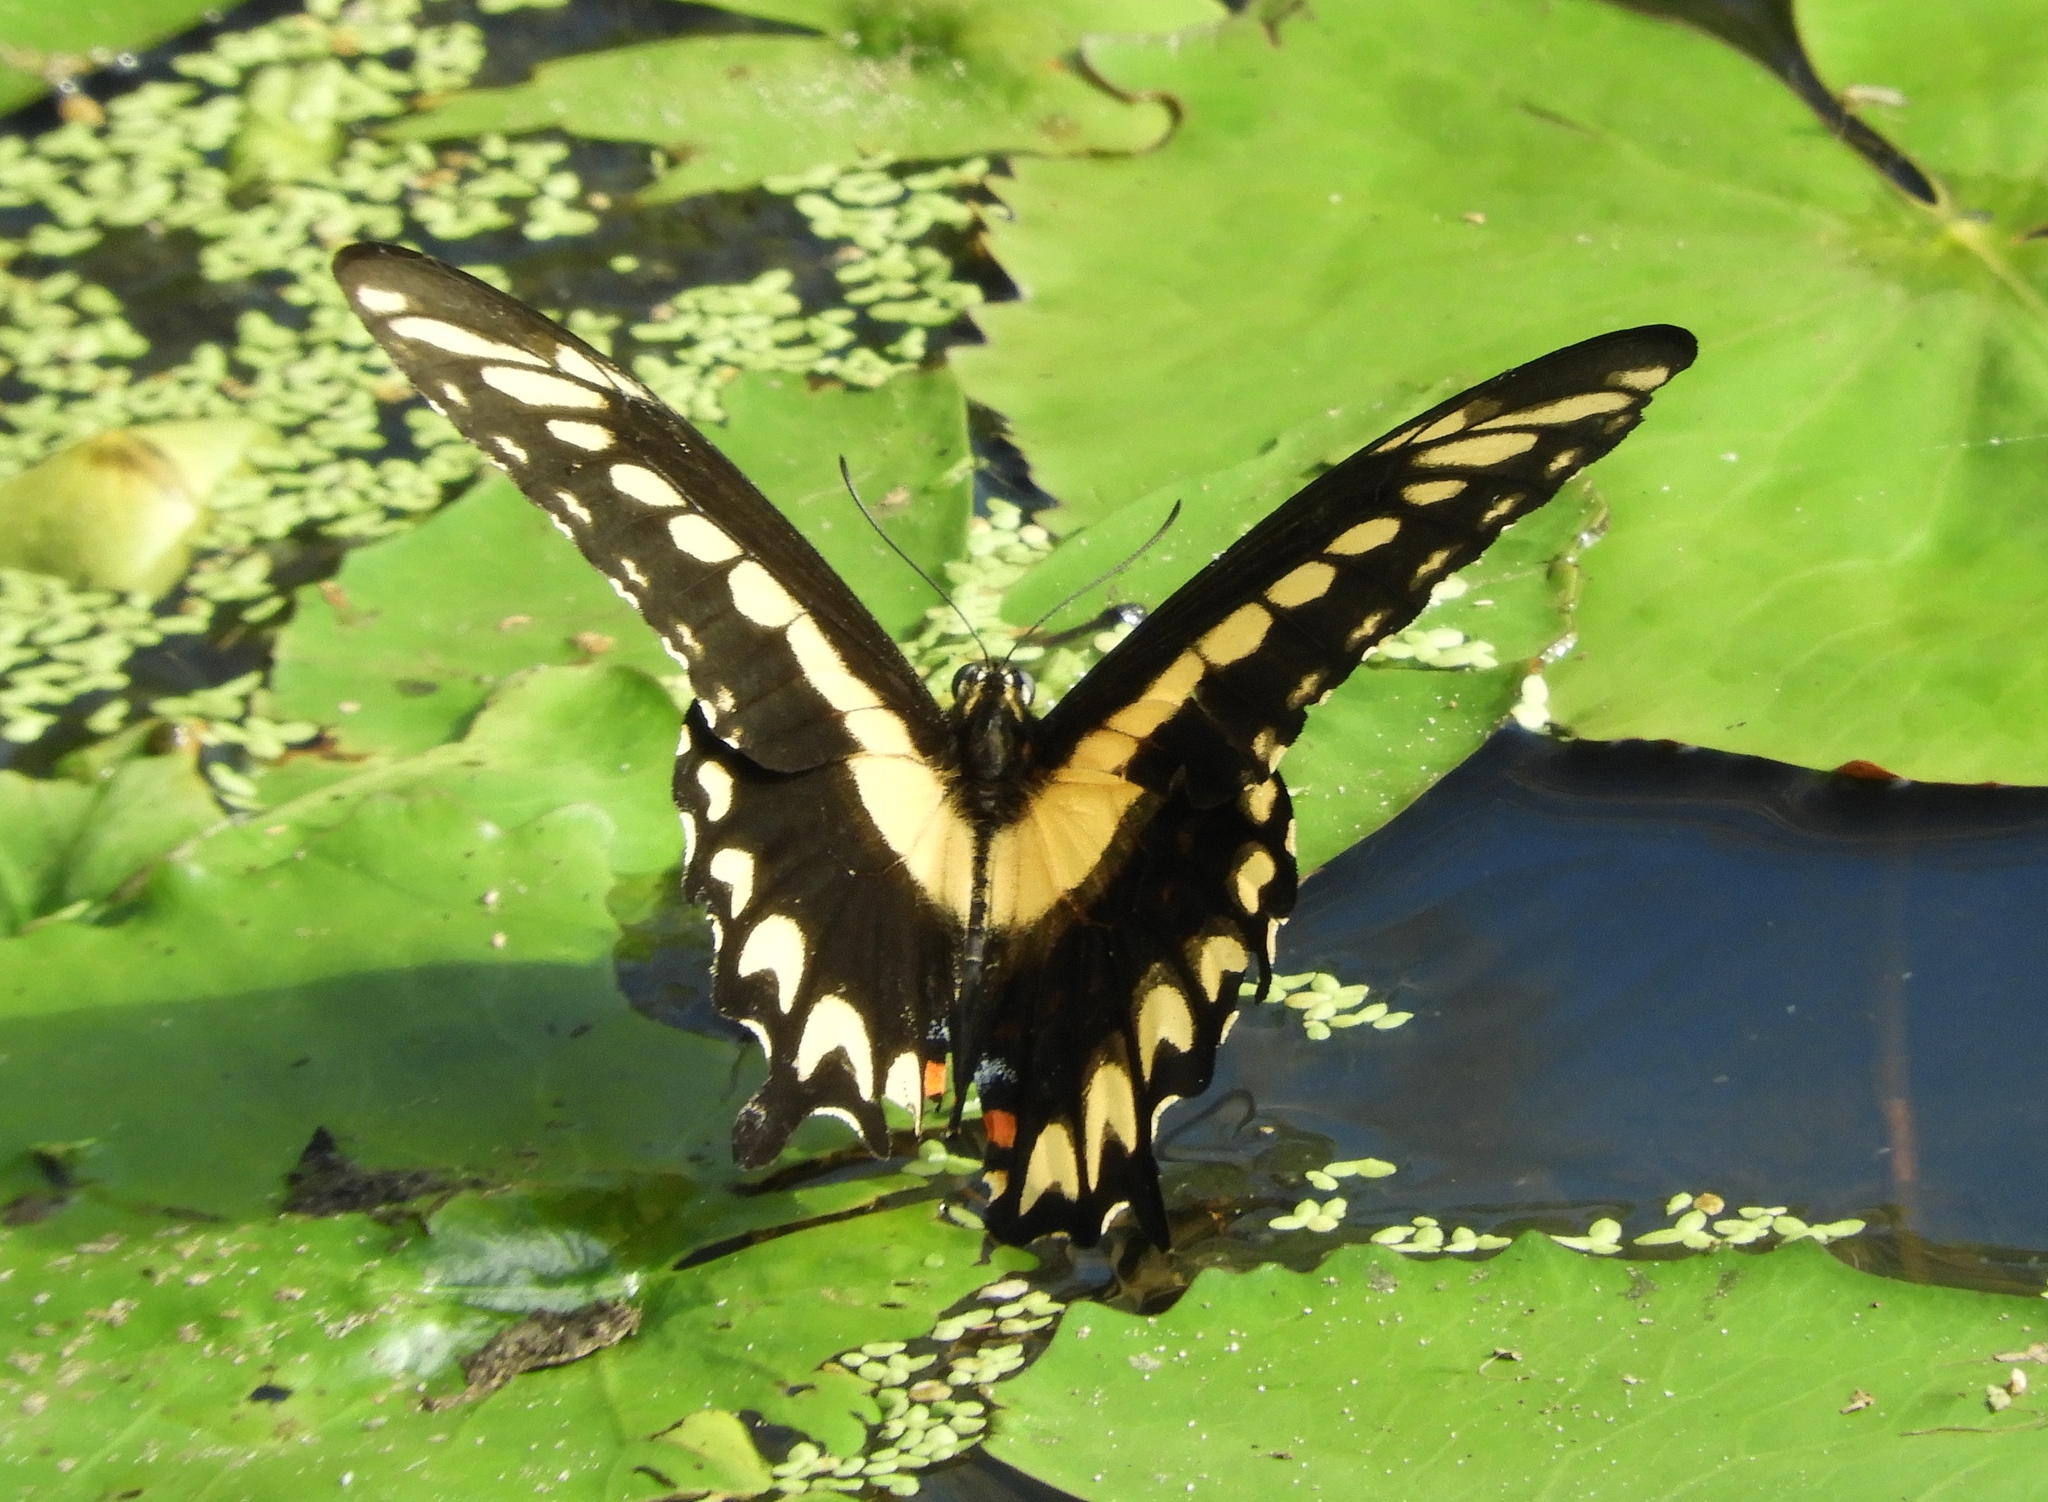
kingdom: Animalia
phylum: Arthropoda
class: Insecta
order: Lepidoptera
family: Papilionidae
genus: Heraclides
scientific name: Heraclides pallas
